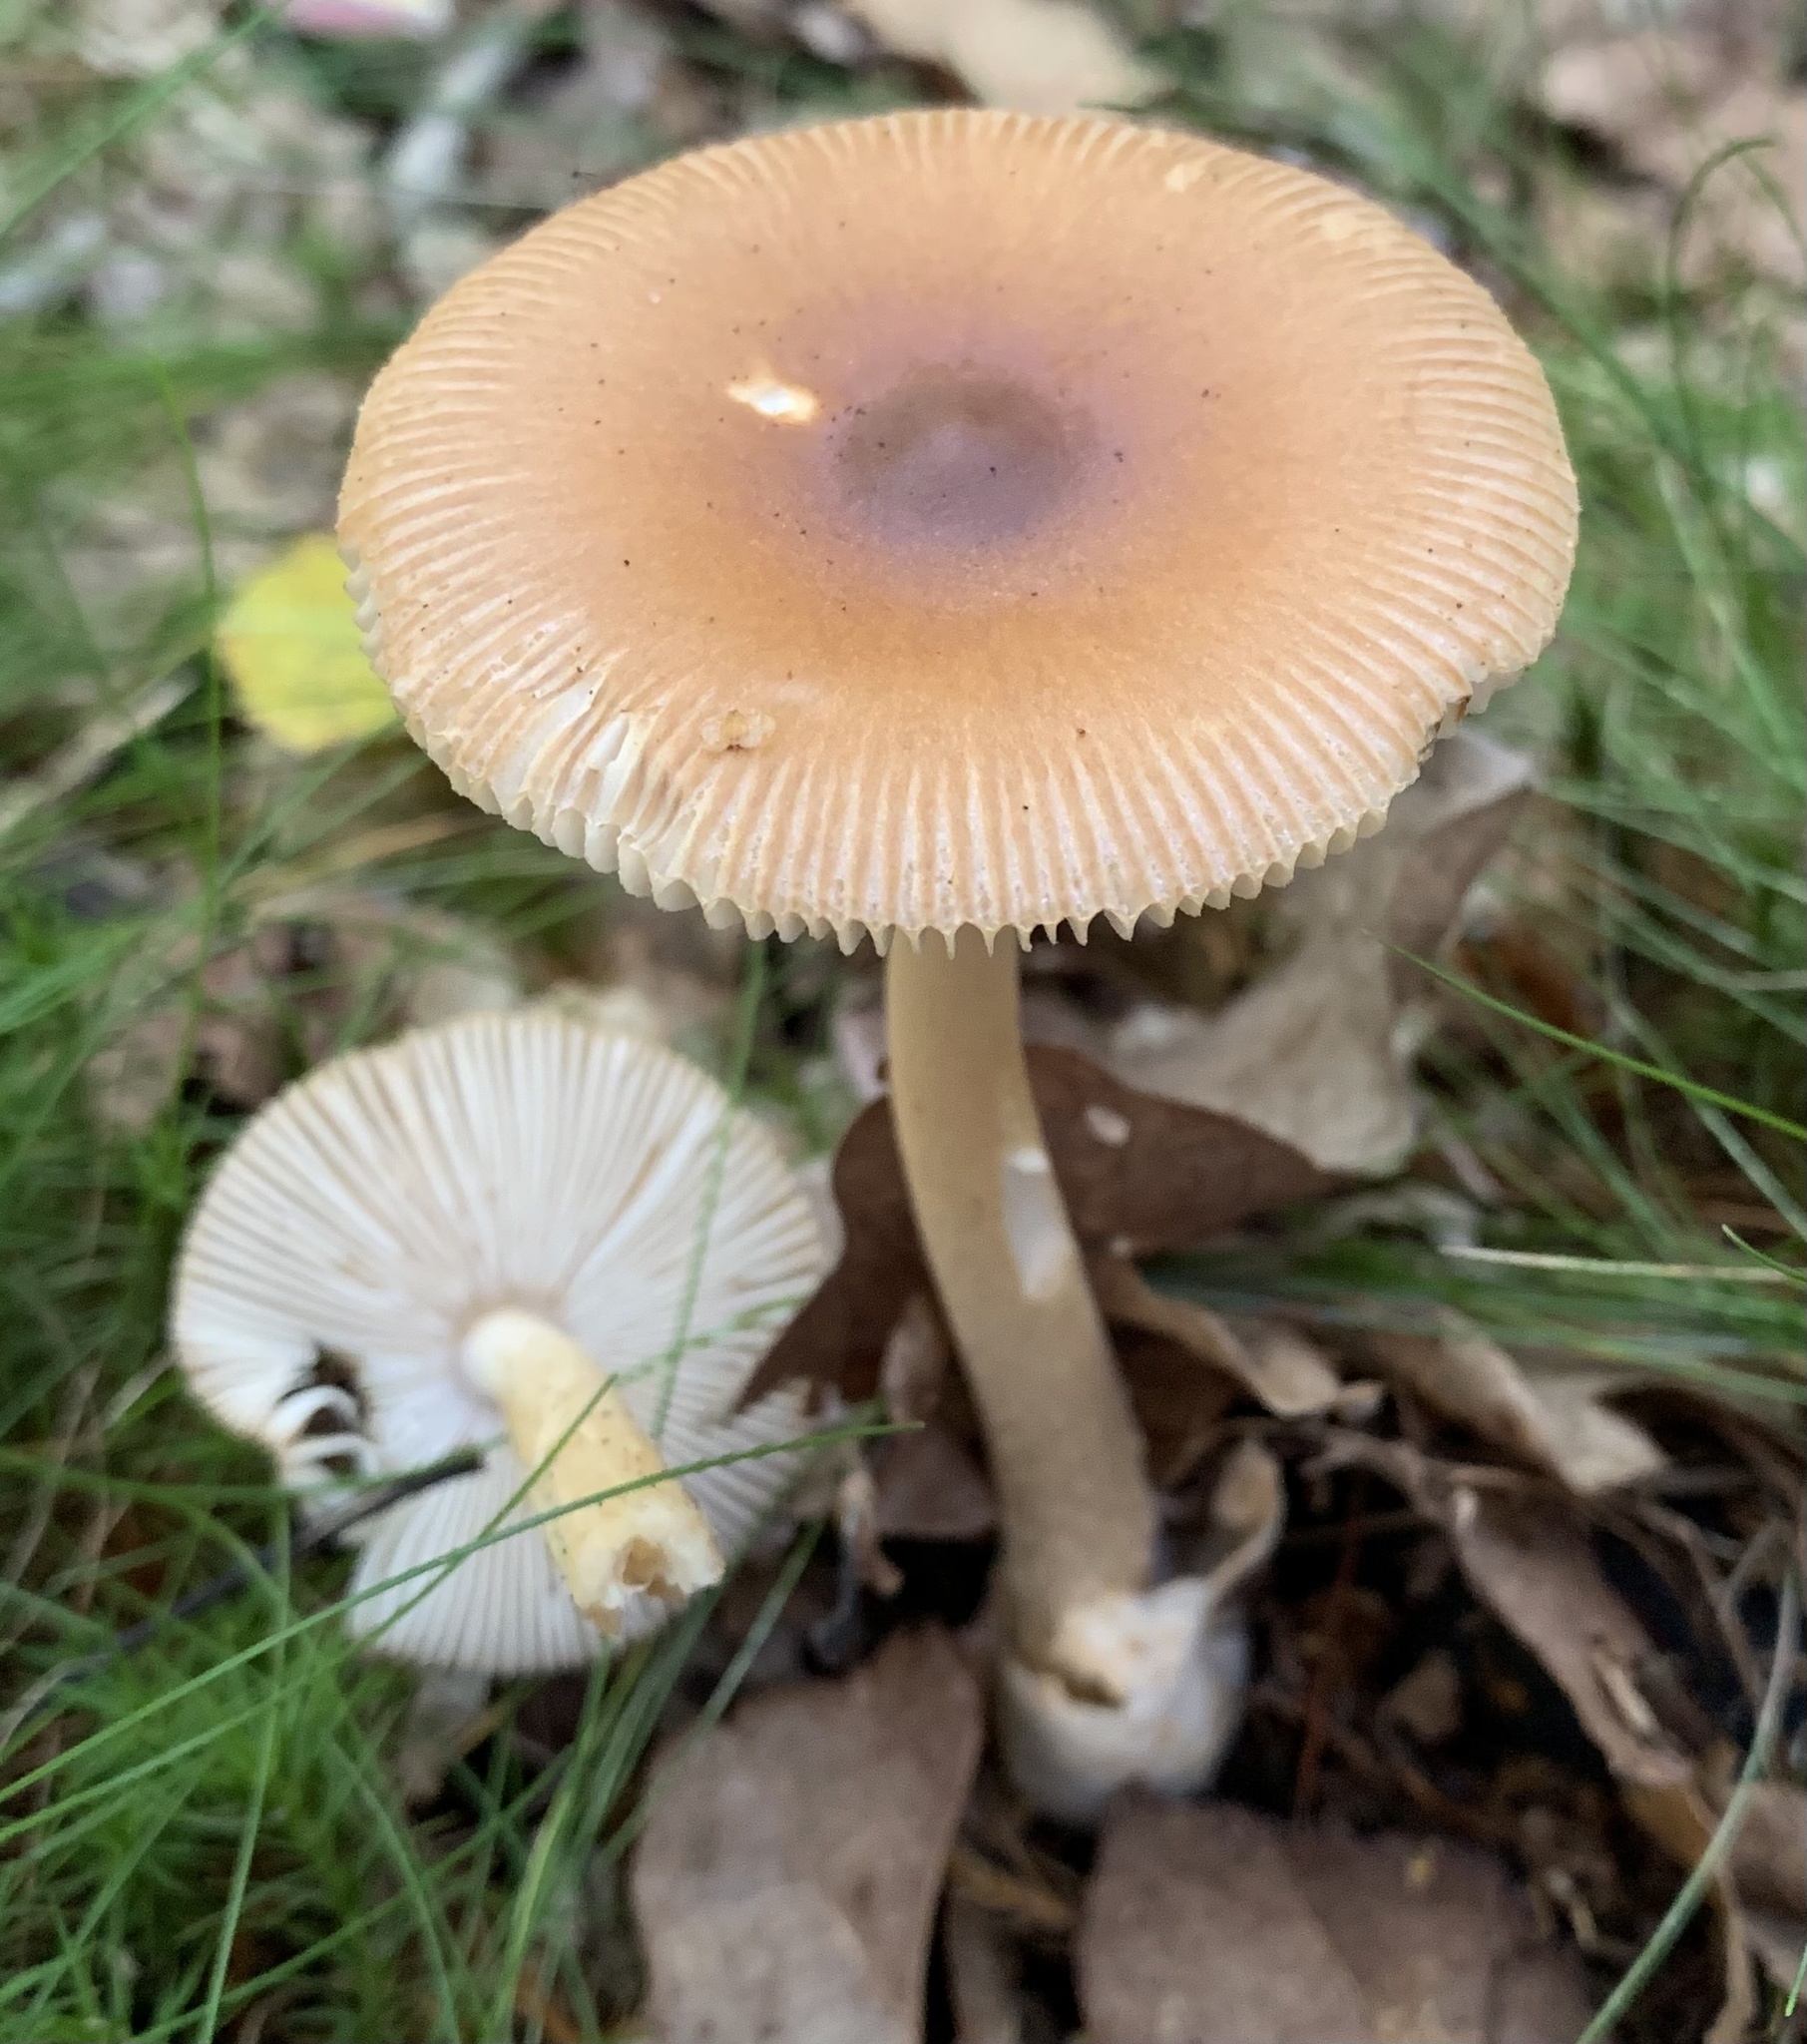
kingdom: Fungi
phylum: Basidiomycota
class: Agaricomycetes
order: Agaricales
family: Amanitaceae
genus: Amanita
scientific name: Amanita fulva
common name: Tawny grisette
